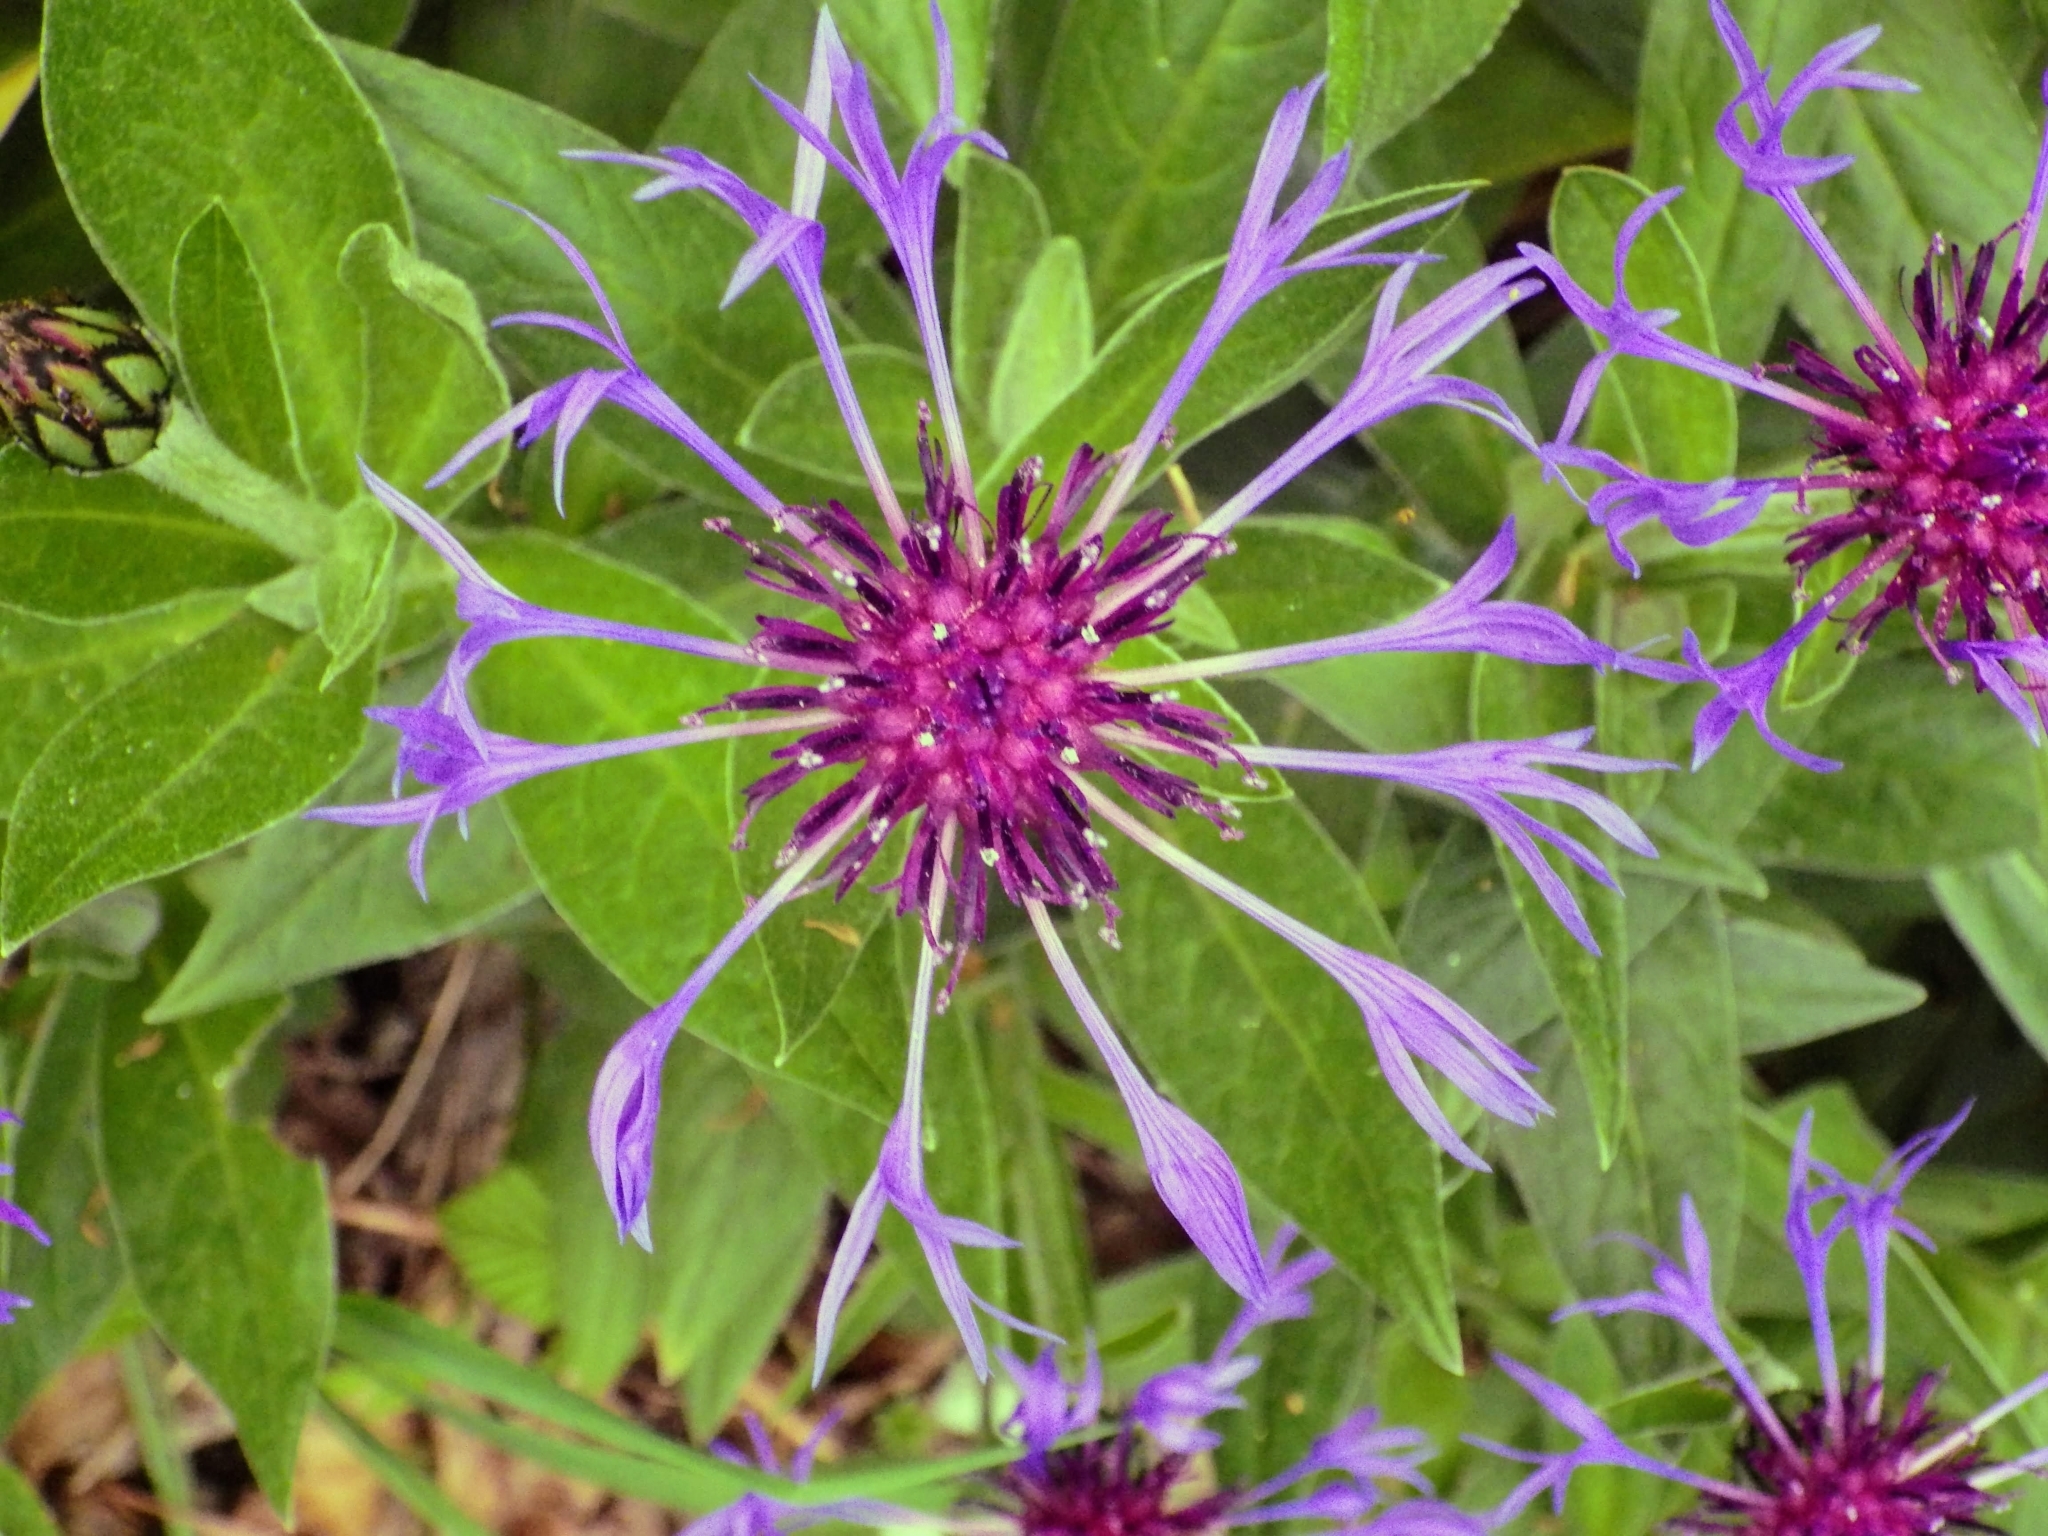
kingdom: Plantae
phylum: Tracheophyta
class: Magnoliopsida
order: Asterales
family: Asteraceae
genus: Centaurea
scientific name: Centaurea montana
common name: Perennial cornflower
